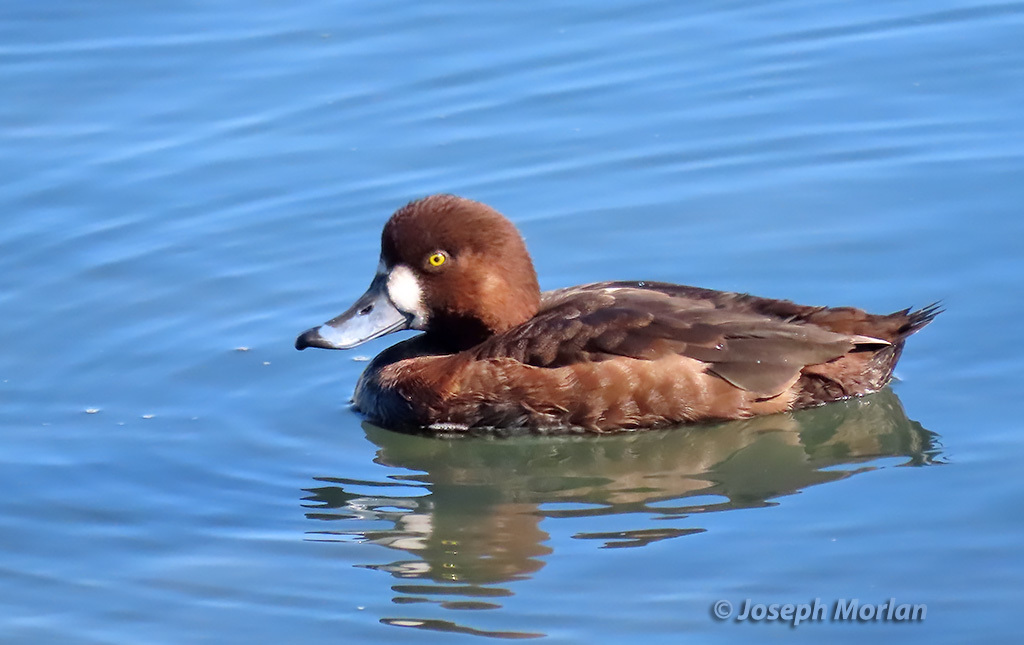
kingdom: Animalia
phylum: Chordata
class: Aves
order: Anseriformes
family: Anatidae
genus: Aythya
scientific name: Aythya marila
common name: Greater scaup
